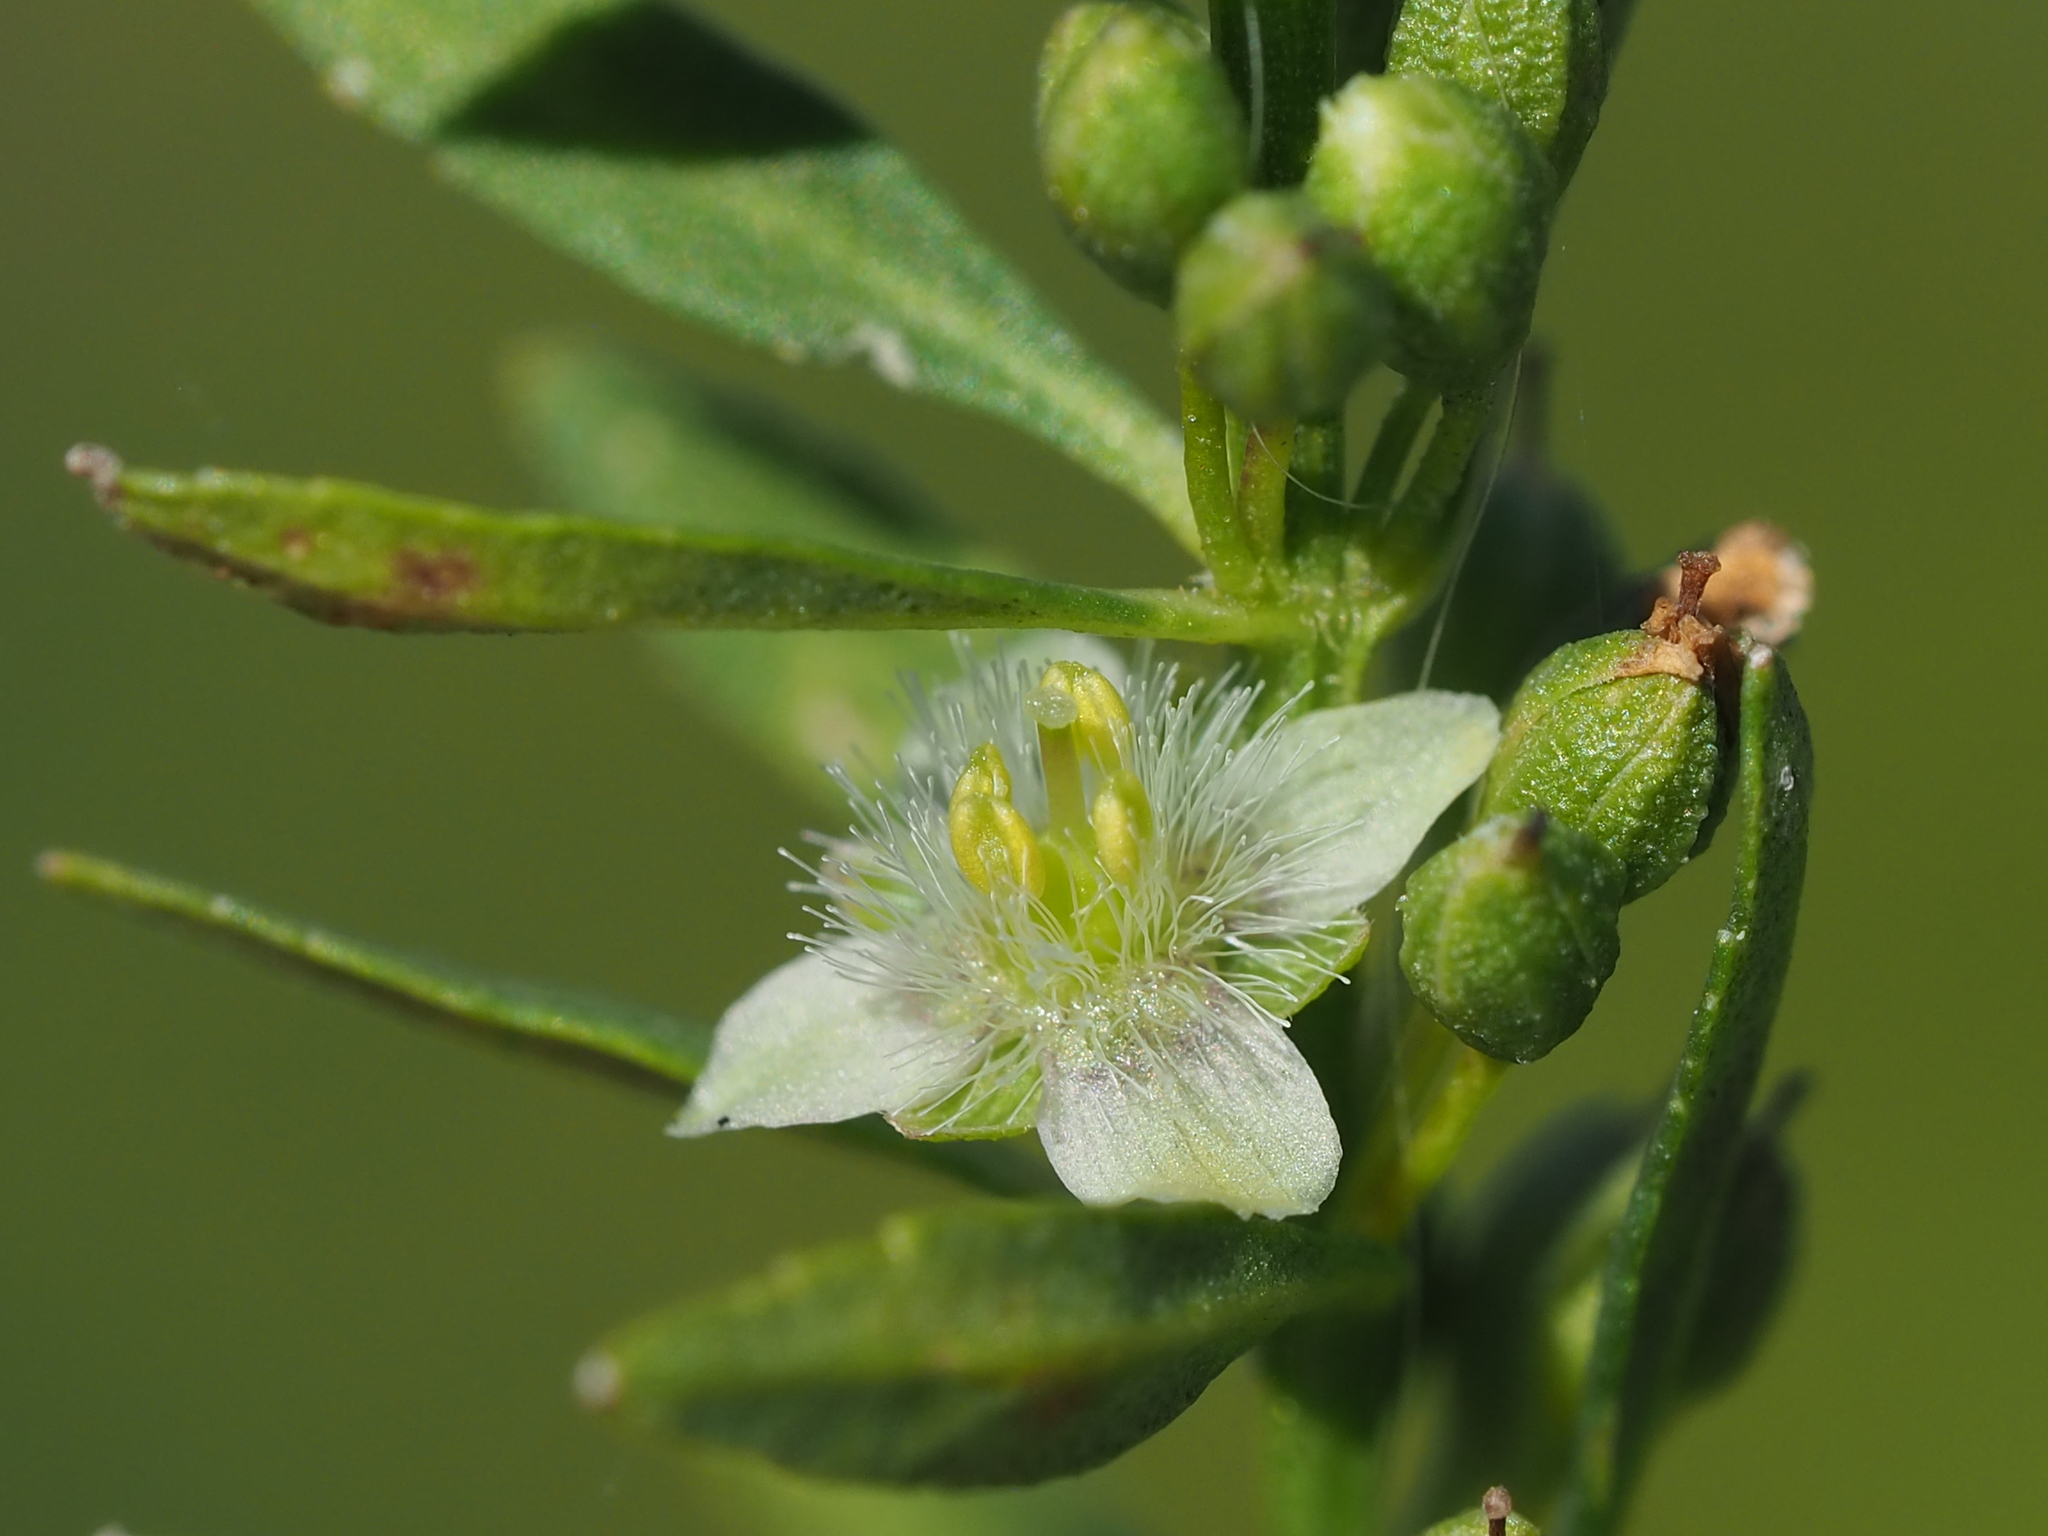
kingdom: Plantae
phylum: Tracheophyta
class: Magnoliopsida
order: Lamiales
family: Plantaginaceae
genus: Scoparia
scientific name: Scoparia dulcis
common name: Scoparia-weed
